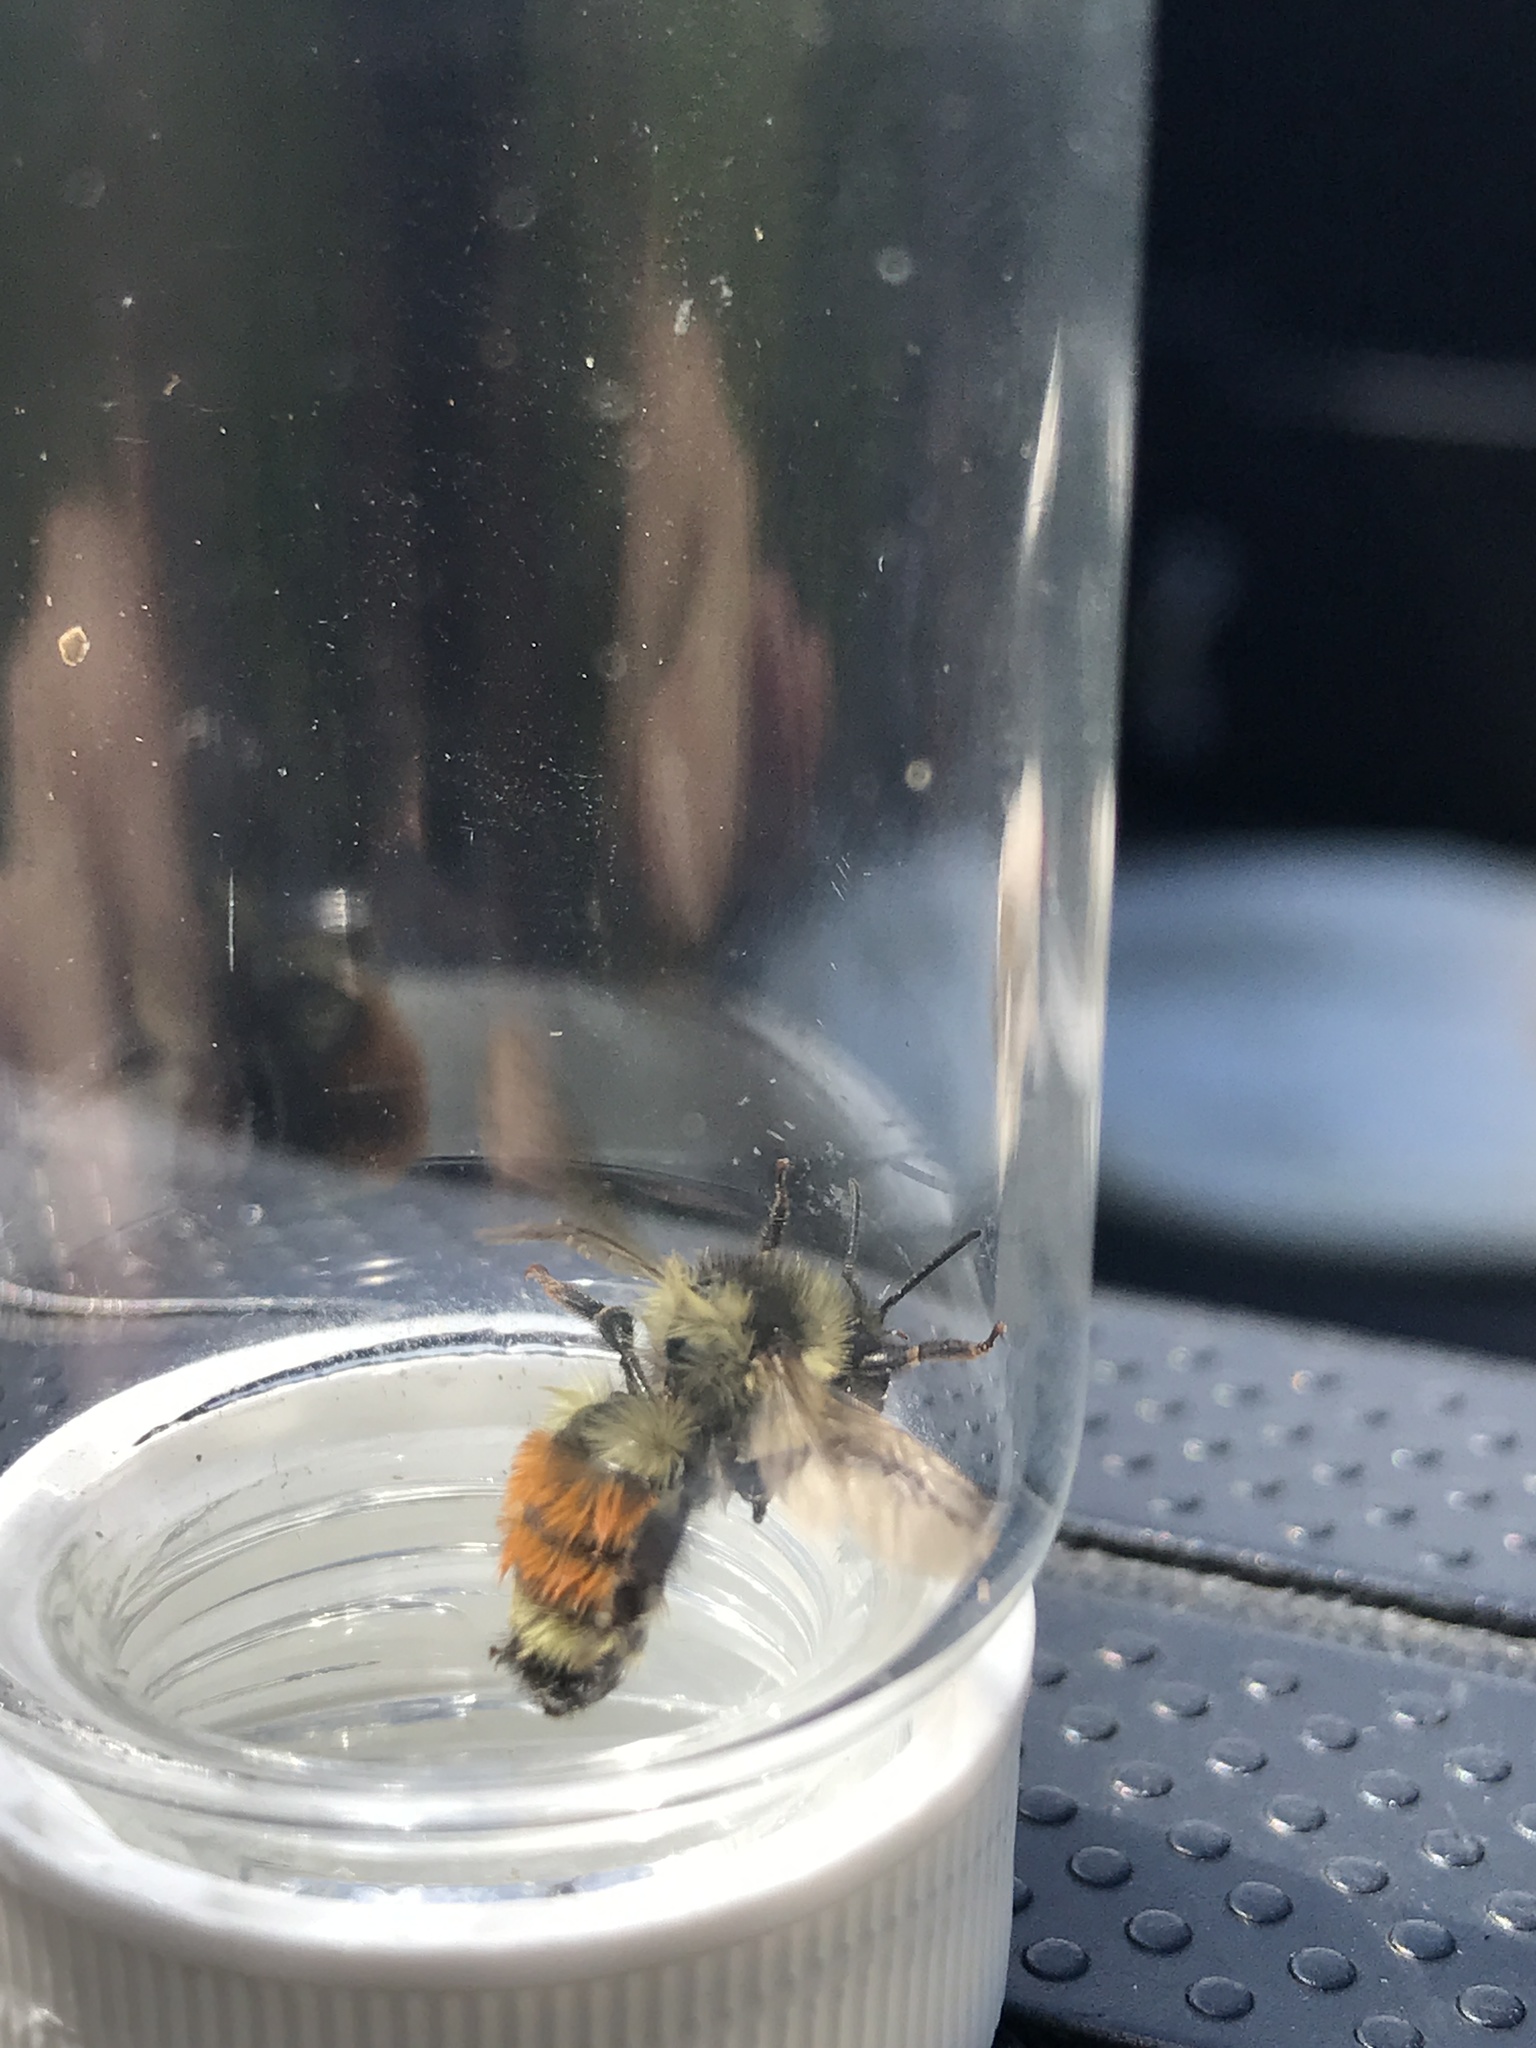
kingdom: Animalia
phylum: Arthropoda
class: Insecta
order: Hymenoptera
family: Apidae
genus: Bombus
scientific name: Bombus ternarius
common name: Tri-colored bumble bee
